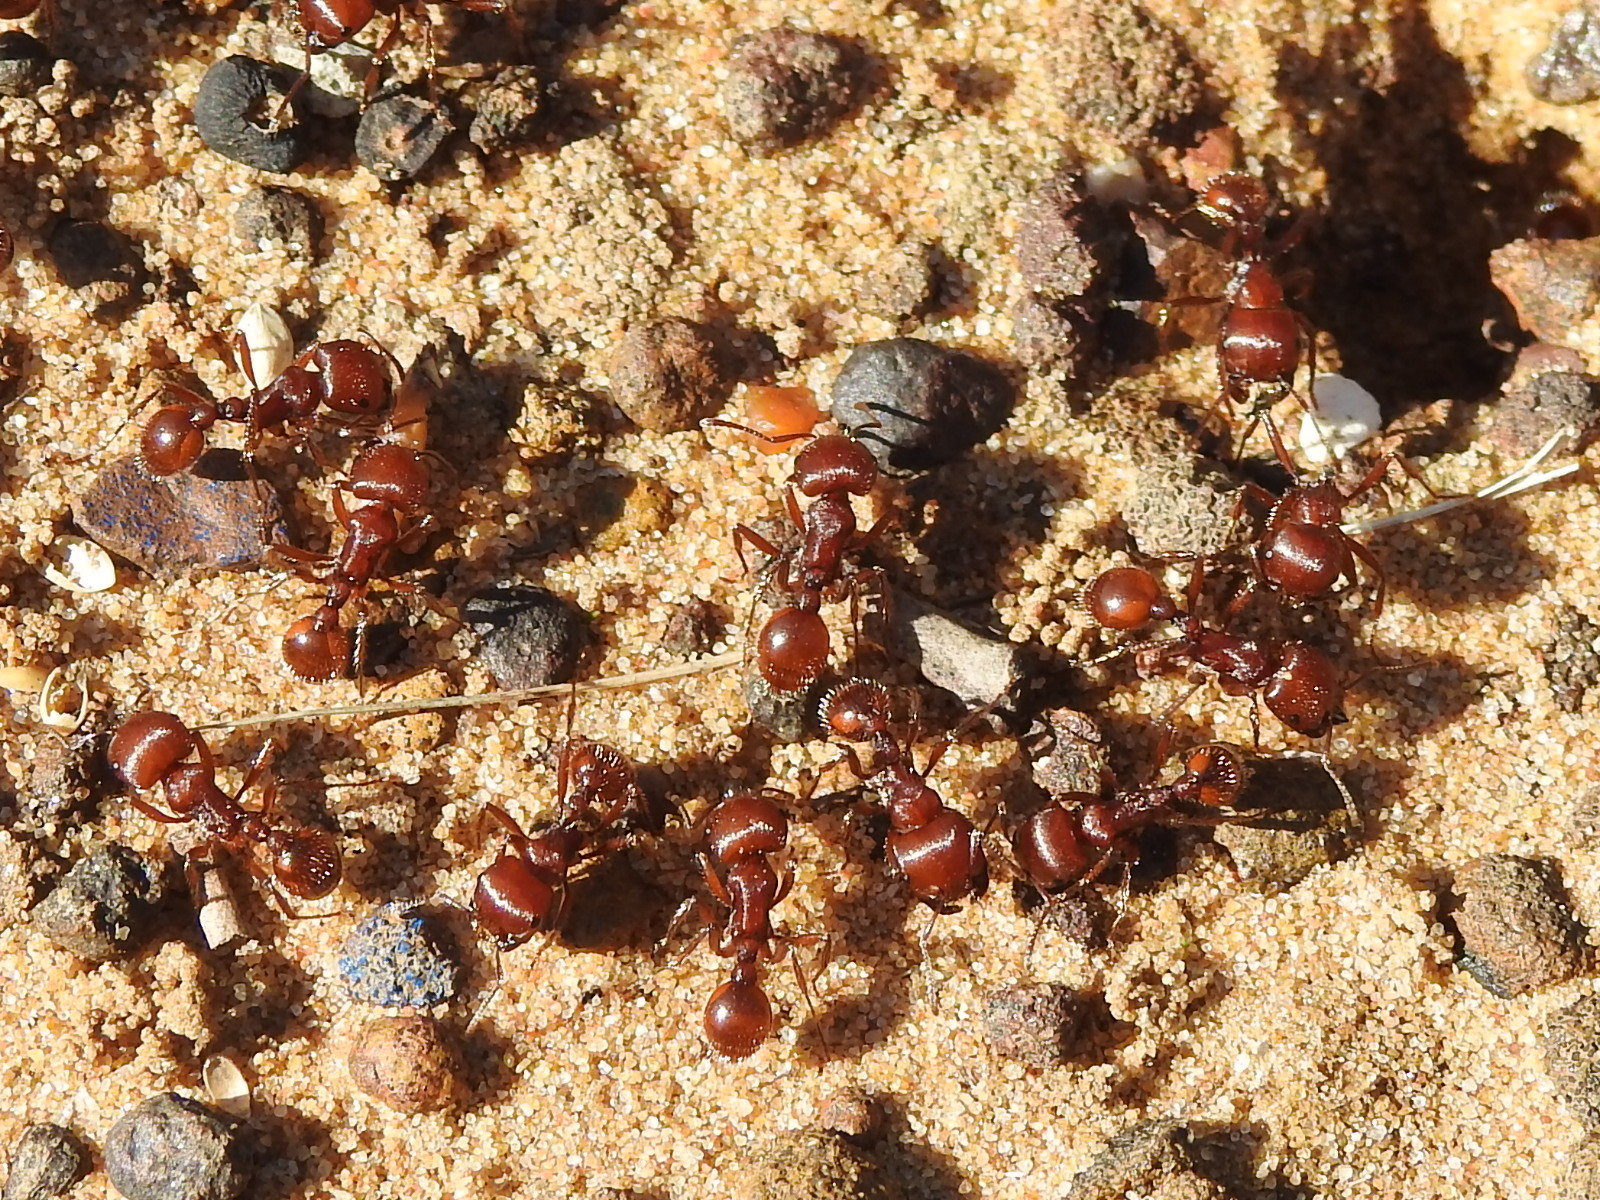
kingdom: Animalia
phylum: Arthropoda
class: Insecta
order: Hymenoptera
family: Formicidae
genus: Pogonomyrmex
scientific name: Pogonomyrmex barbatus
